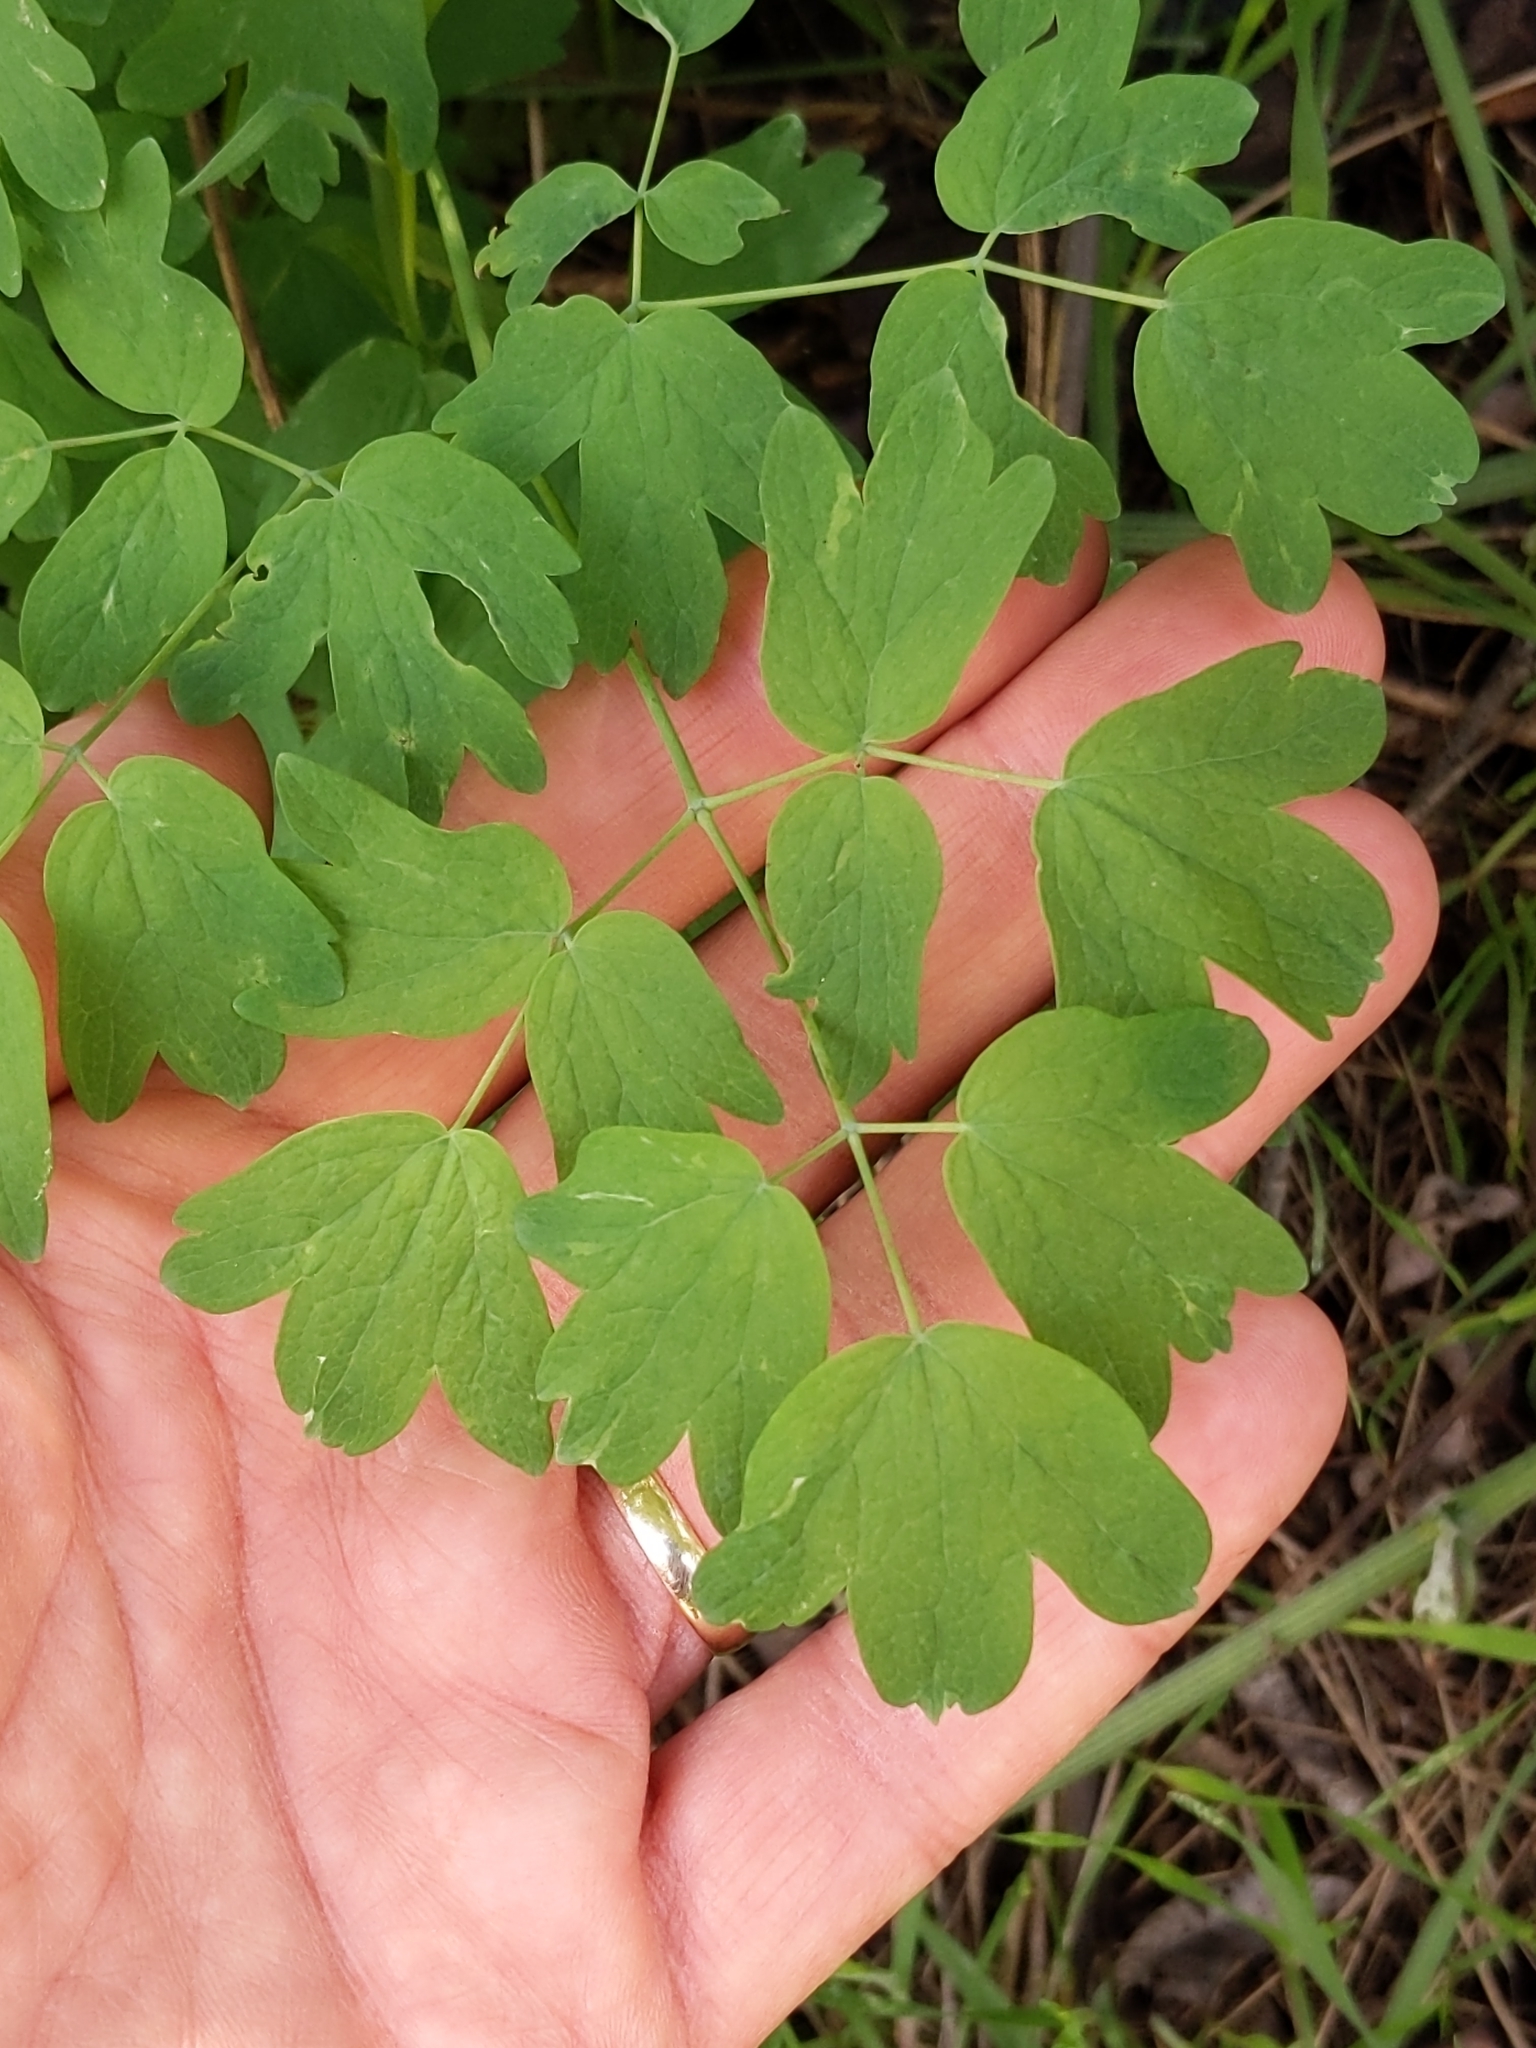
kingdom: Plantae
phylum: Tracheophyta
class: Magnoliopsida
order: Ranunculales
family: Ranunculaceae
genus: Thalictrum
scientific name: Thalictrum fendleri
